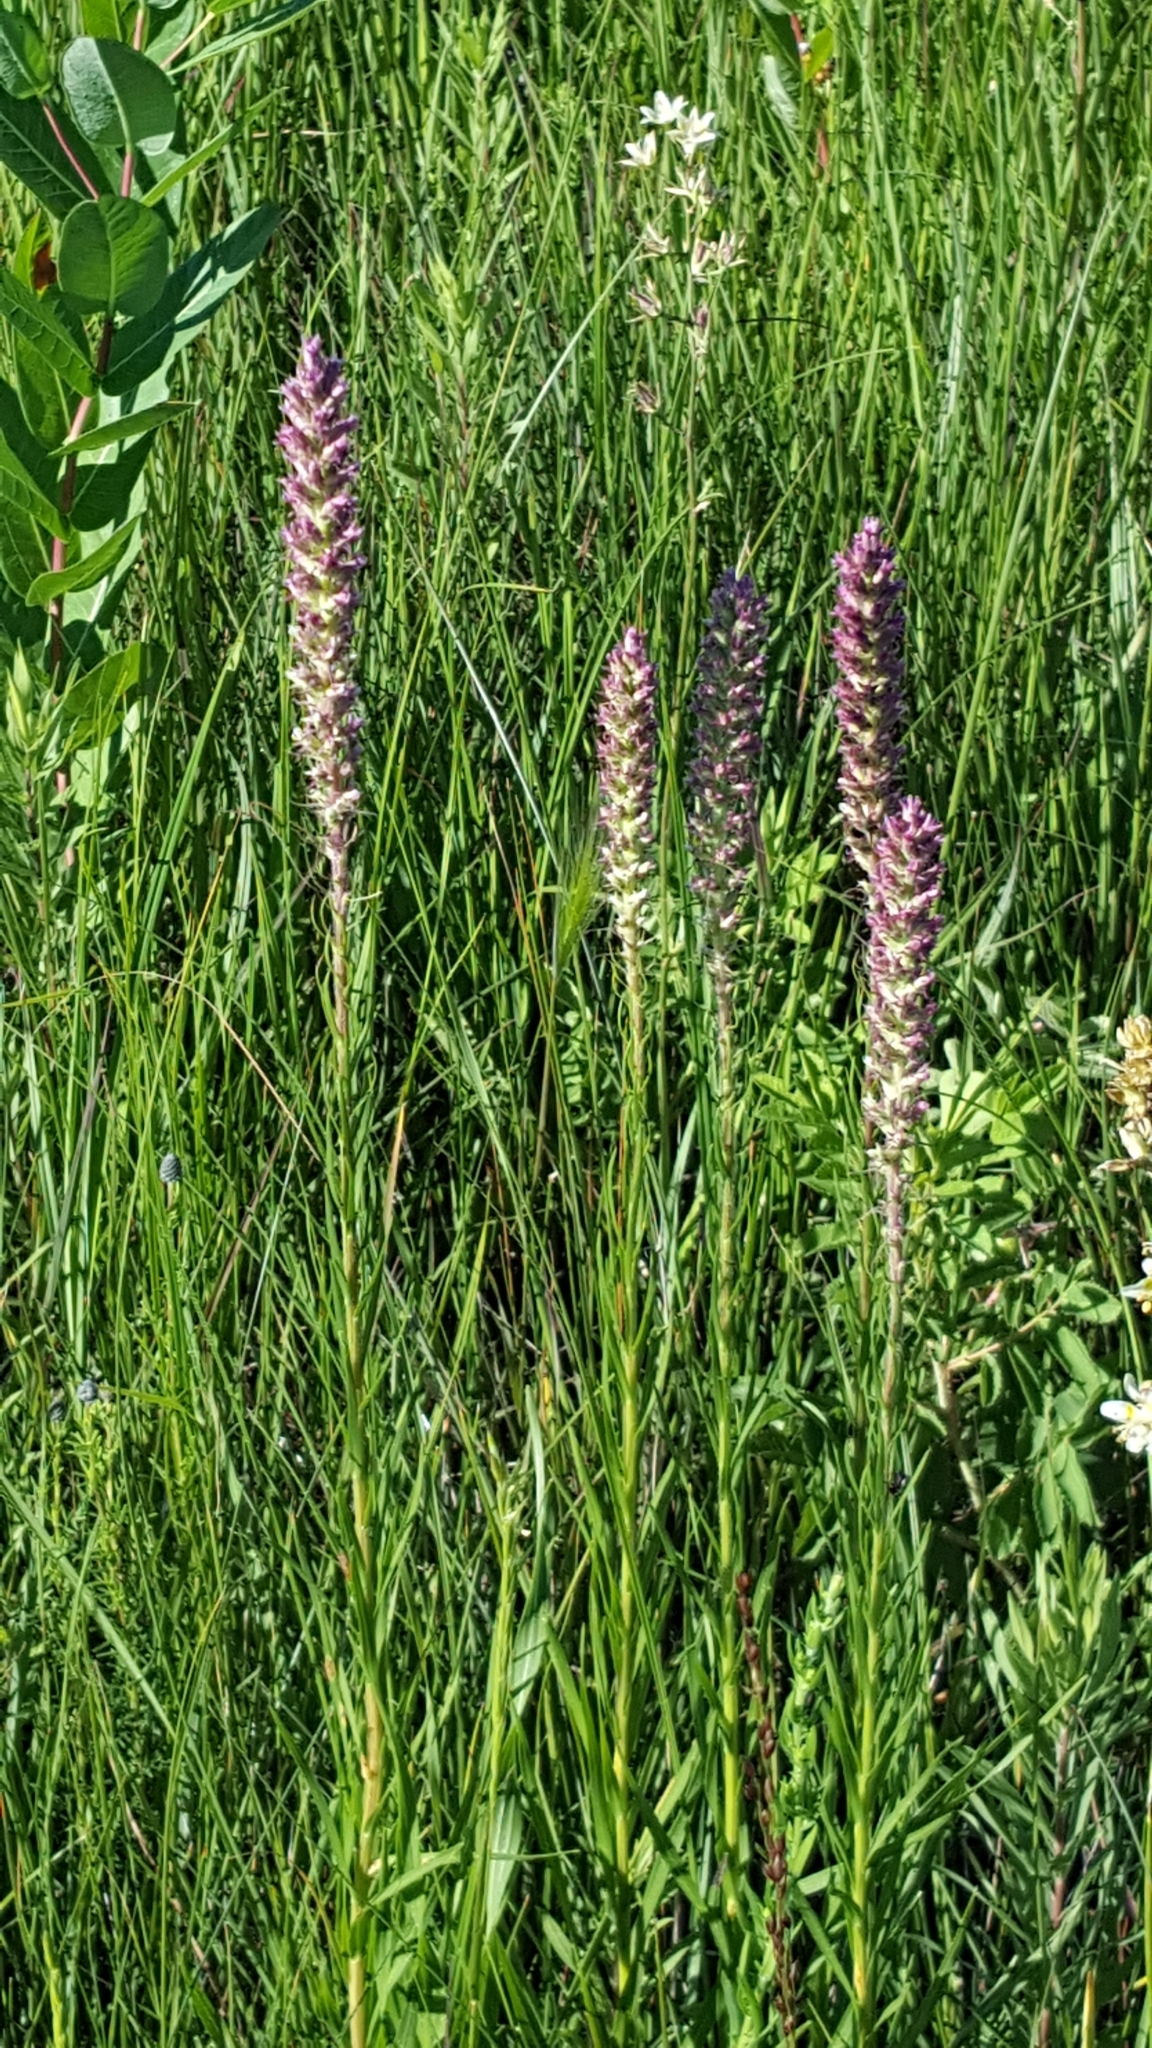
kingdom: Plantae
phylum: Tracheophyta
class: Magnoliopsida
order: Asterales
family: Asteraceae
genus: Liatris
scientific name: Liatris pycnostachya
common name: Cattail gayfeather
